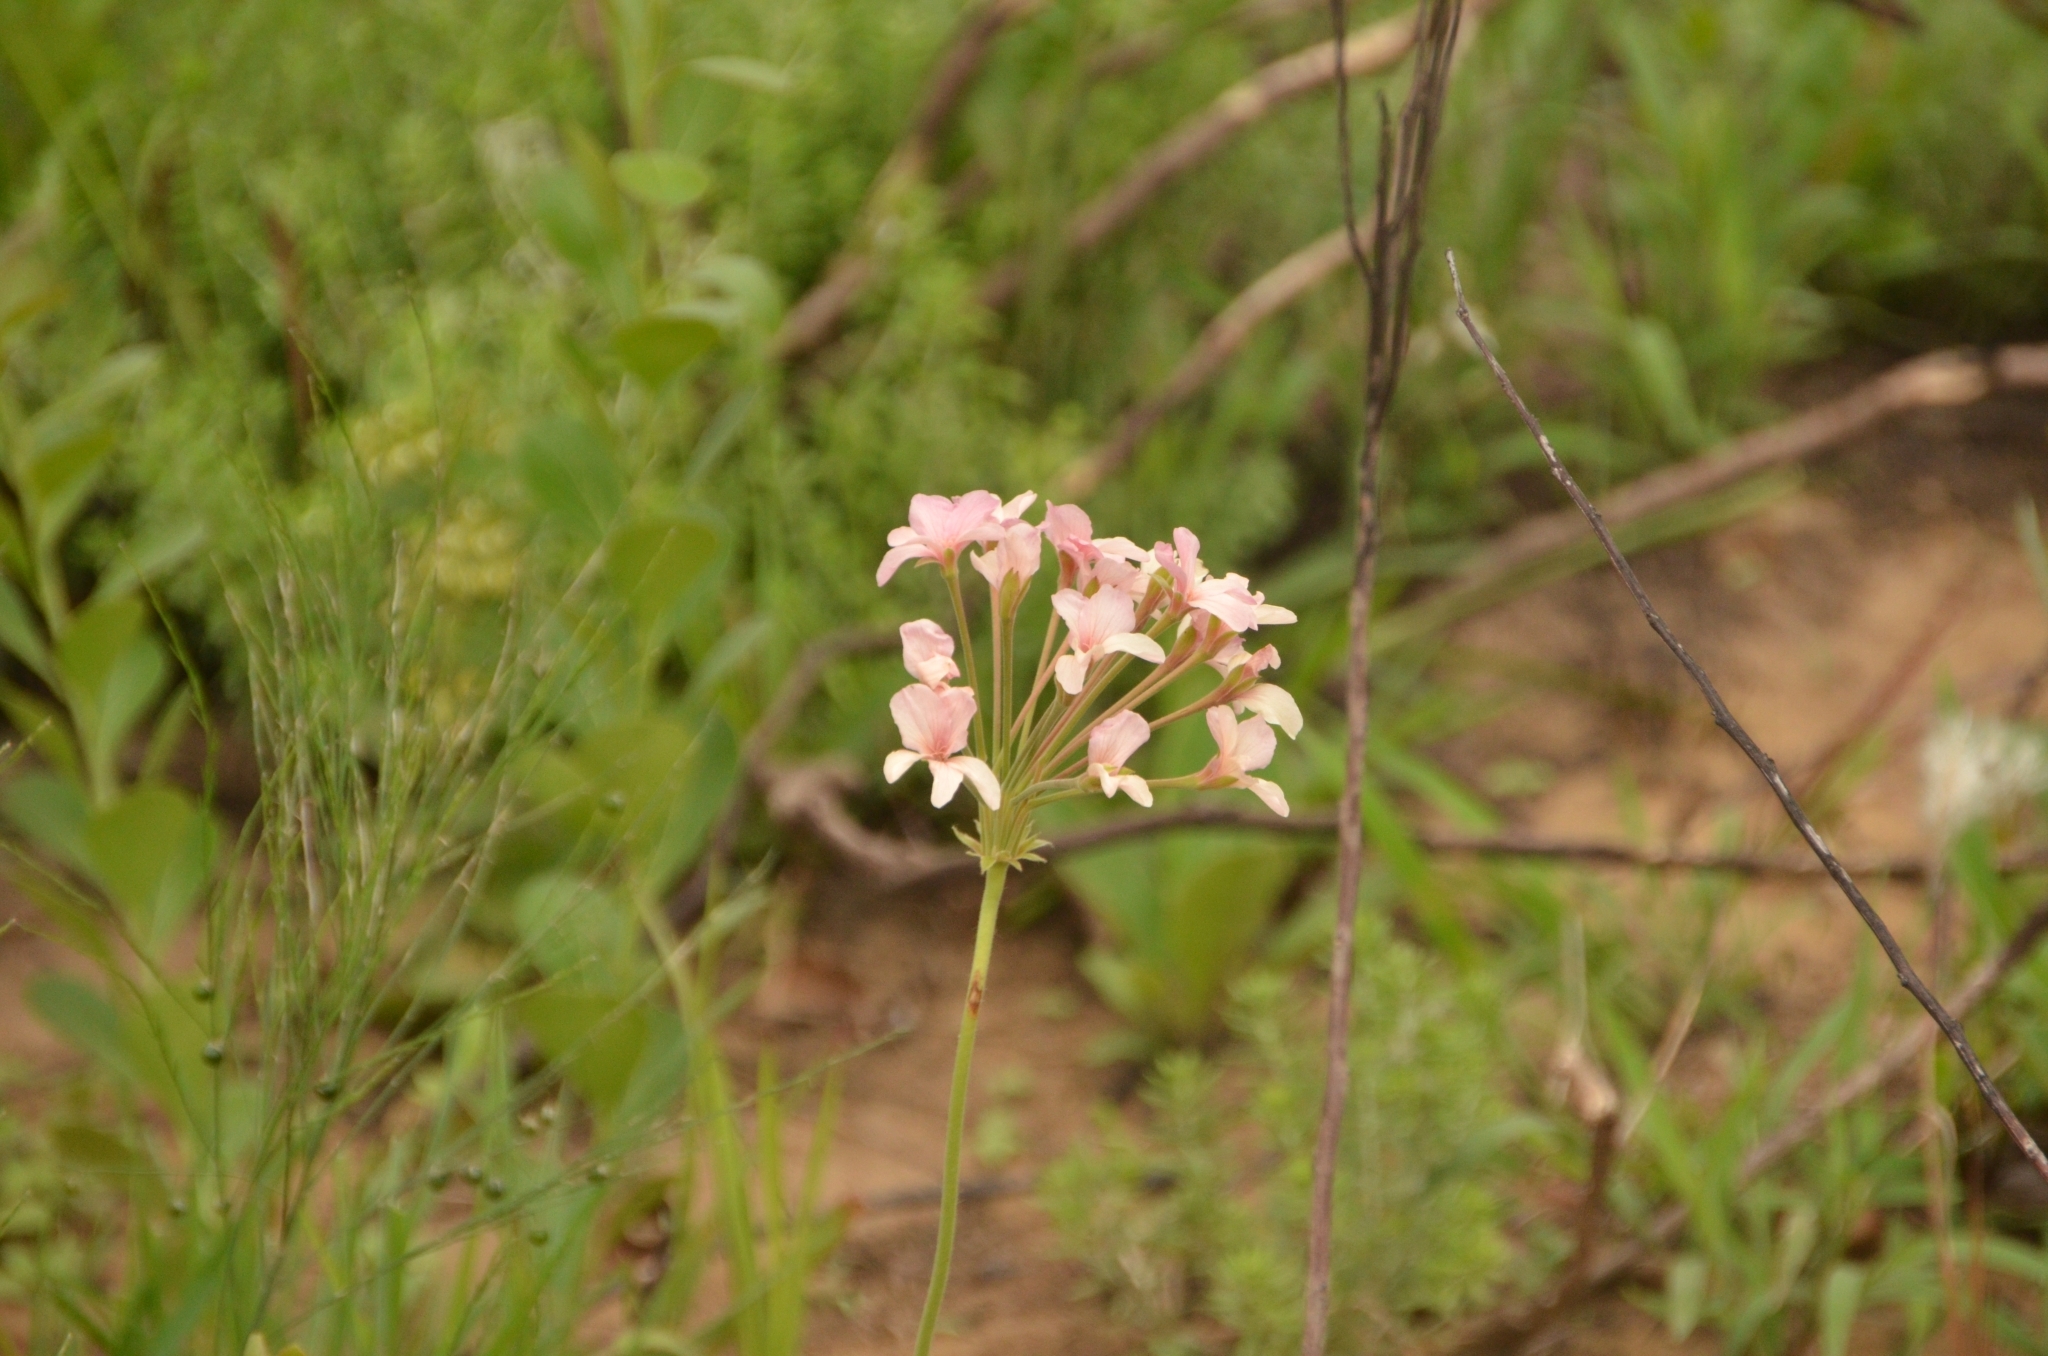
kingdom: Plantae
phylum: Tracheophyta
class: Magnoliopsida
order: Geraniales
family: Geraniaceae
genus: Pelargonium
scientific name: Pelargonium luridum
